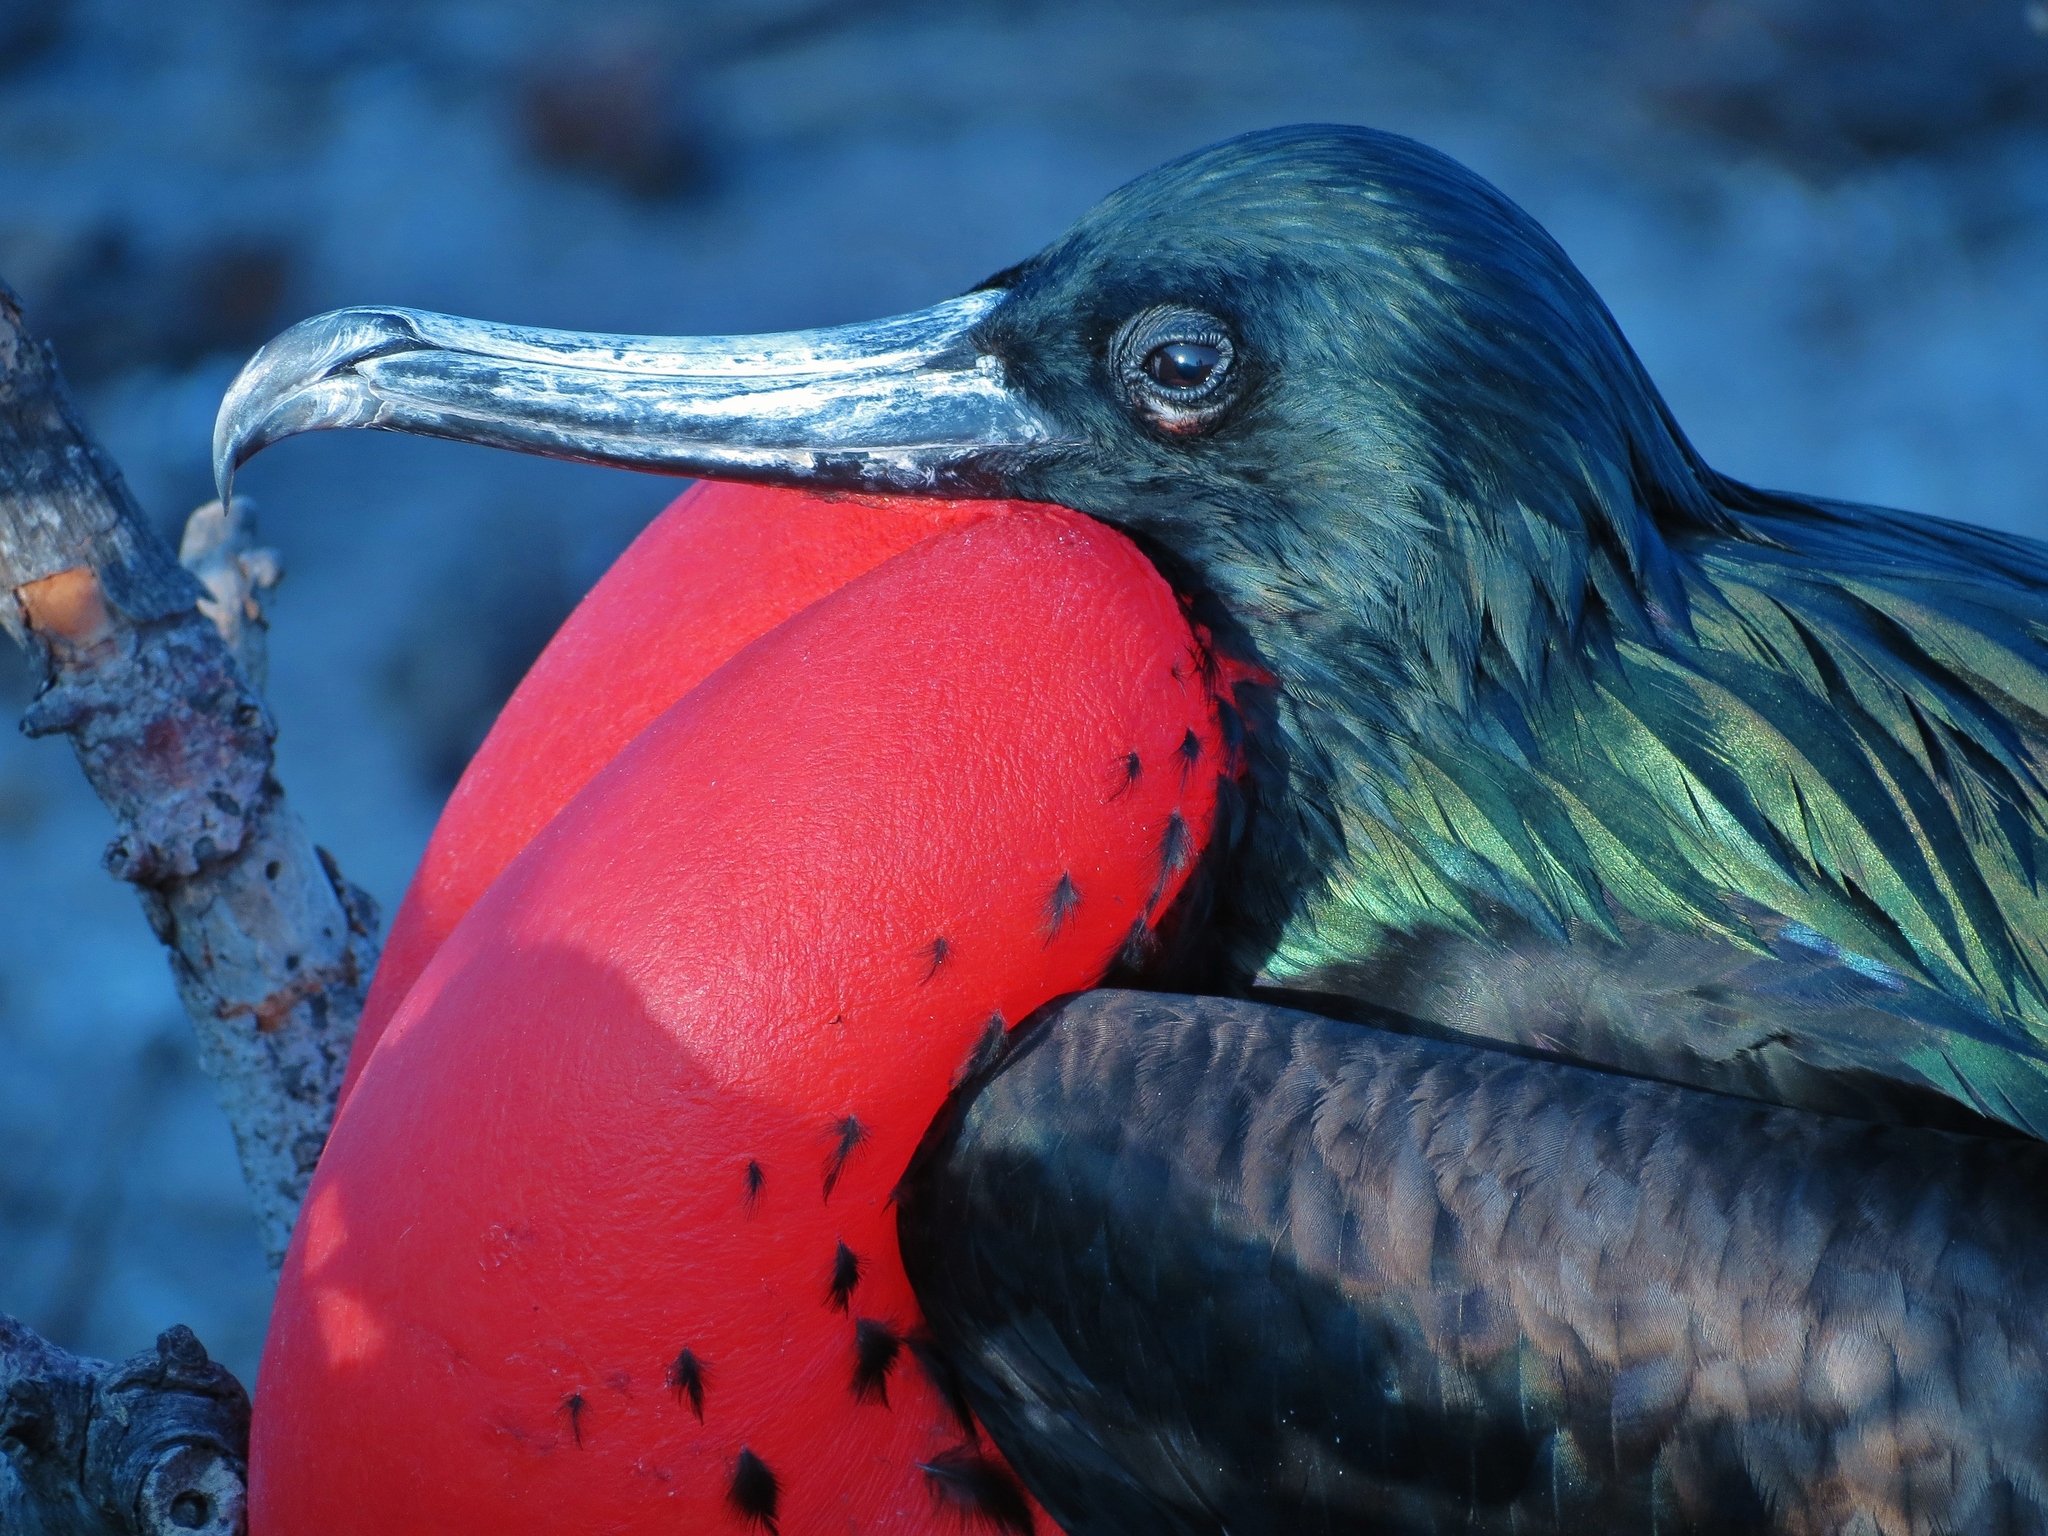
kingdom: Animalia
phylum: Chordata
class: Aves
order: Suliformes
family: Fregatidae
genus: Fregata
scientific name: Fregata minor
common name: Great frigatebird
